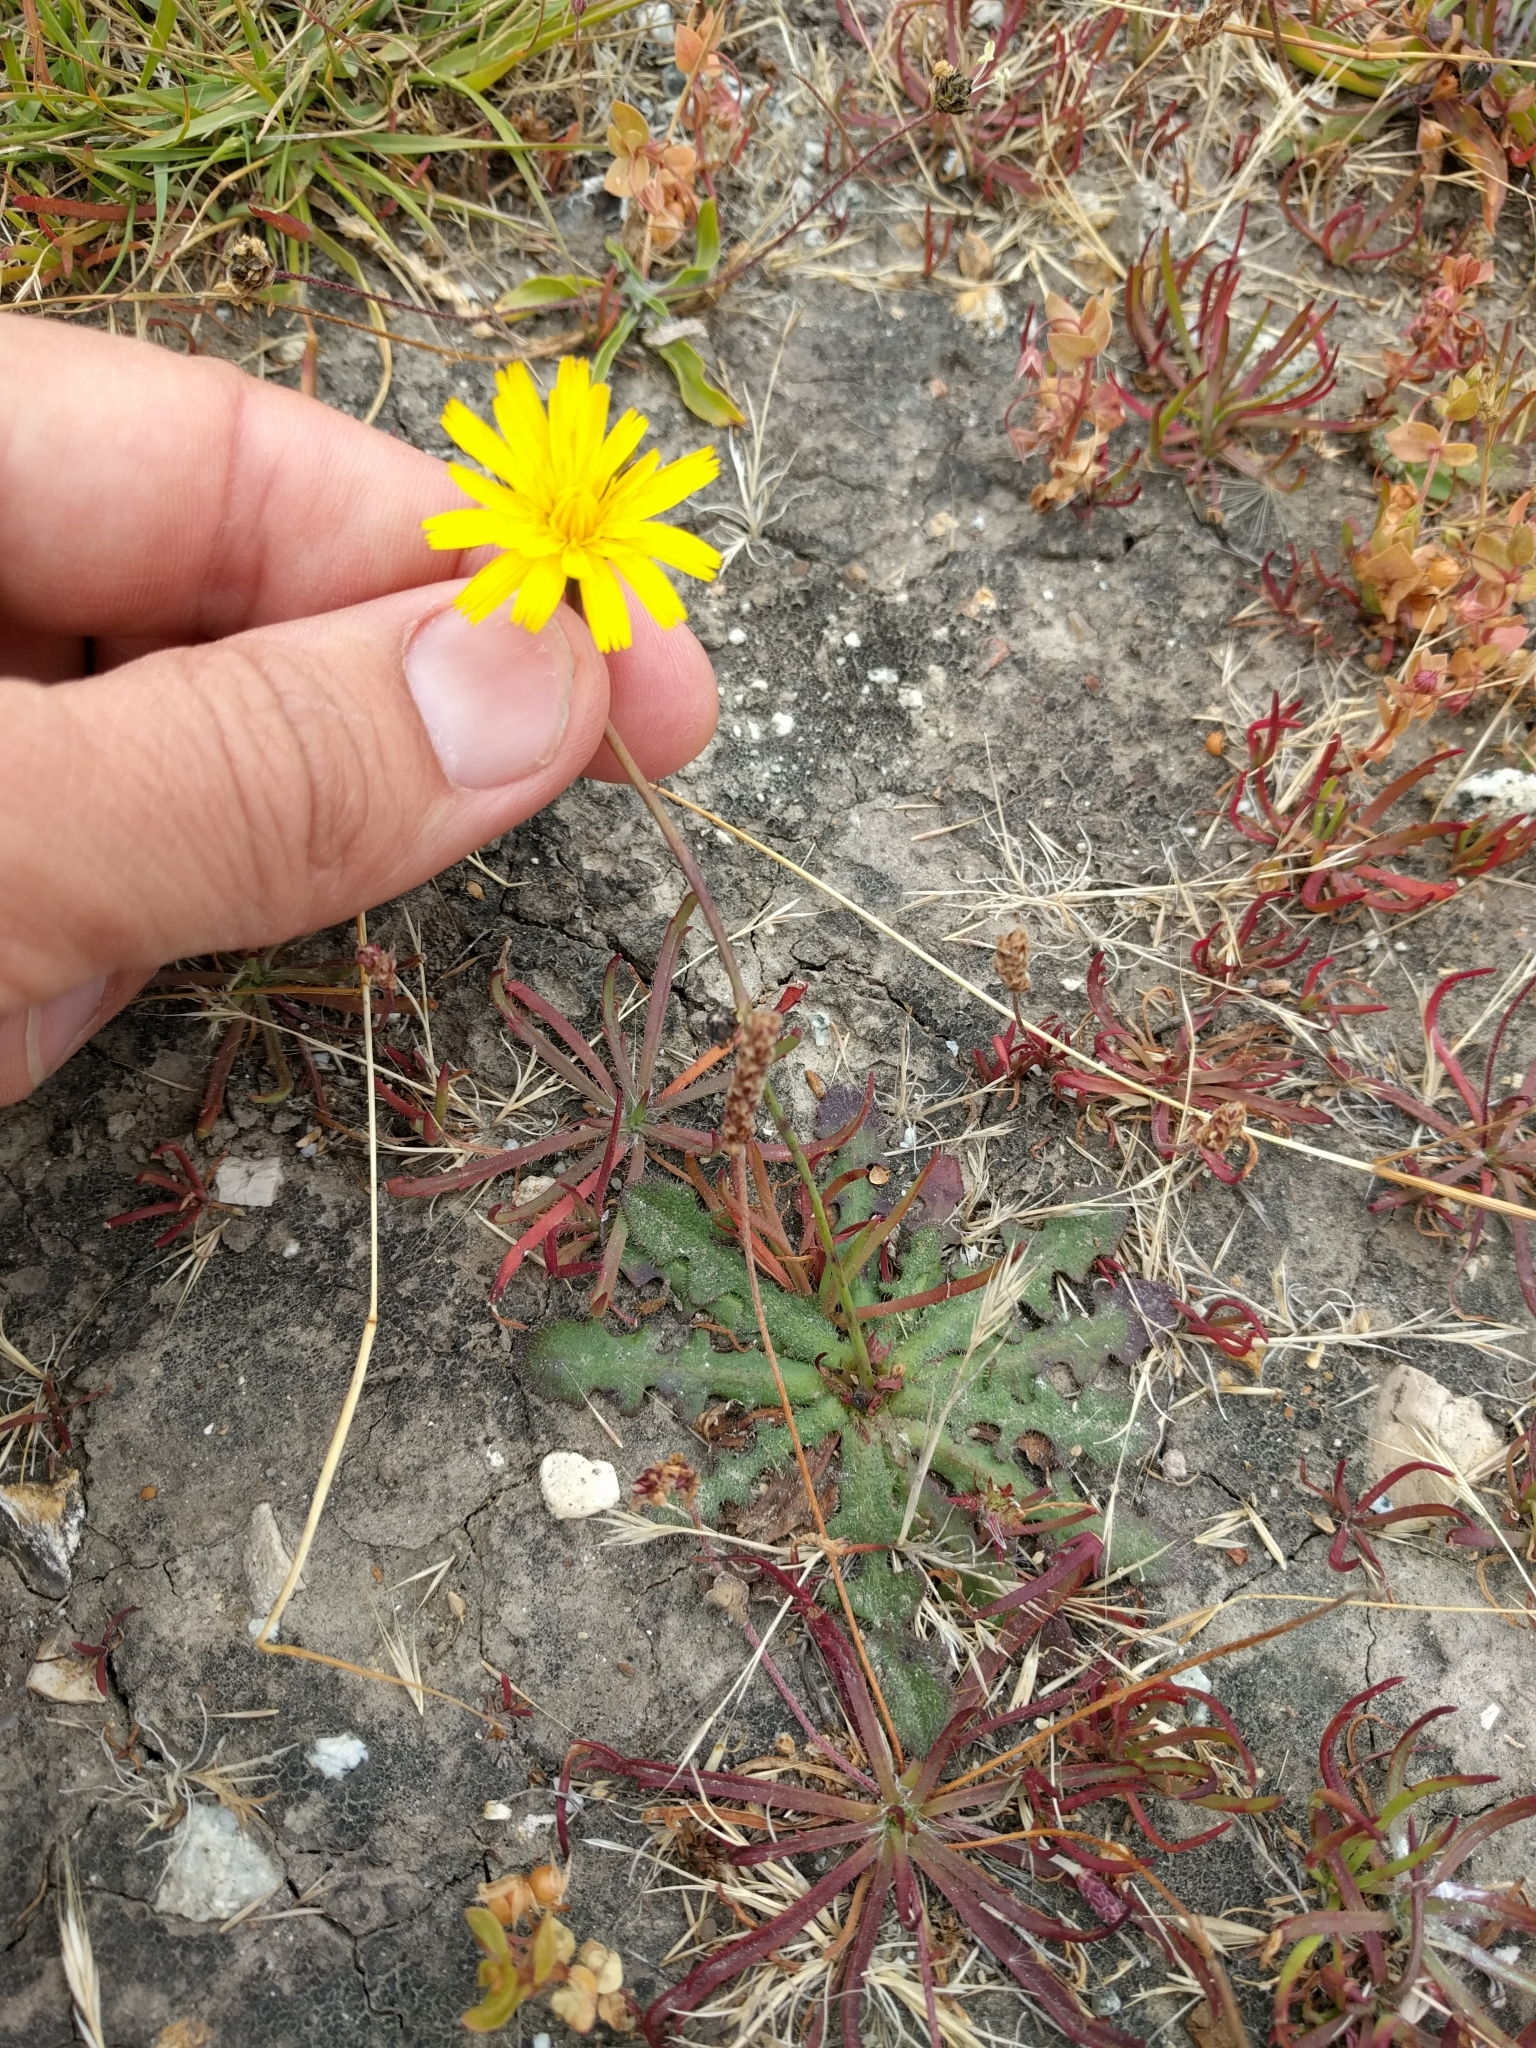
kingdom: Plantae
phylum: Tracheophyta
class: Magnoliopsida
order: Asterales
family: Asteraceae
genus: Hypochaeris
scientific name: Hypochaeris radicata
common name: Flatweed
